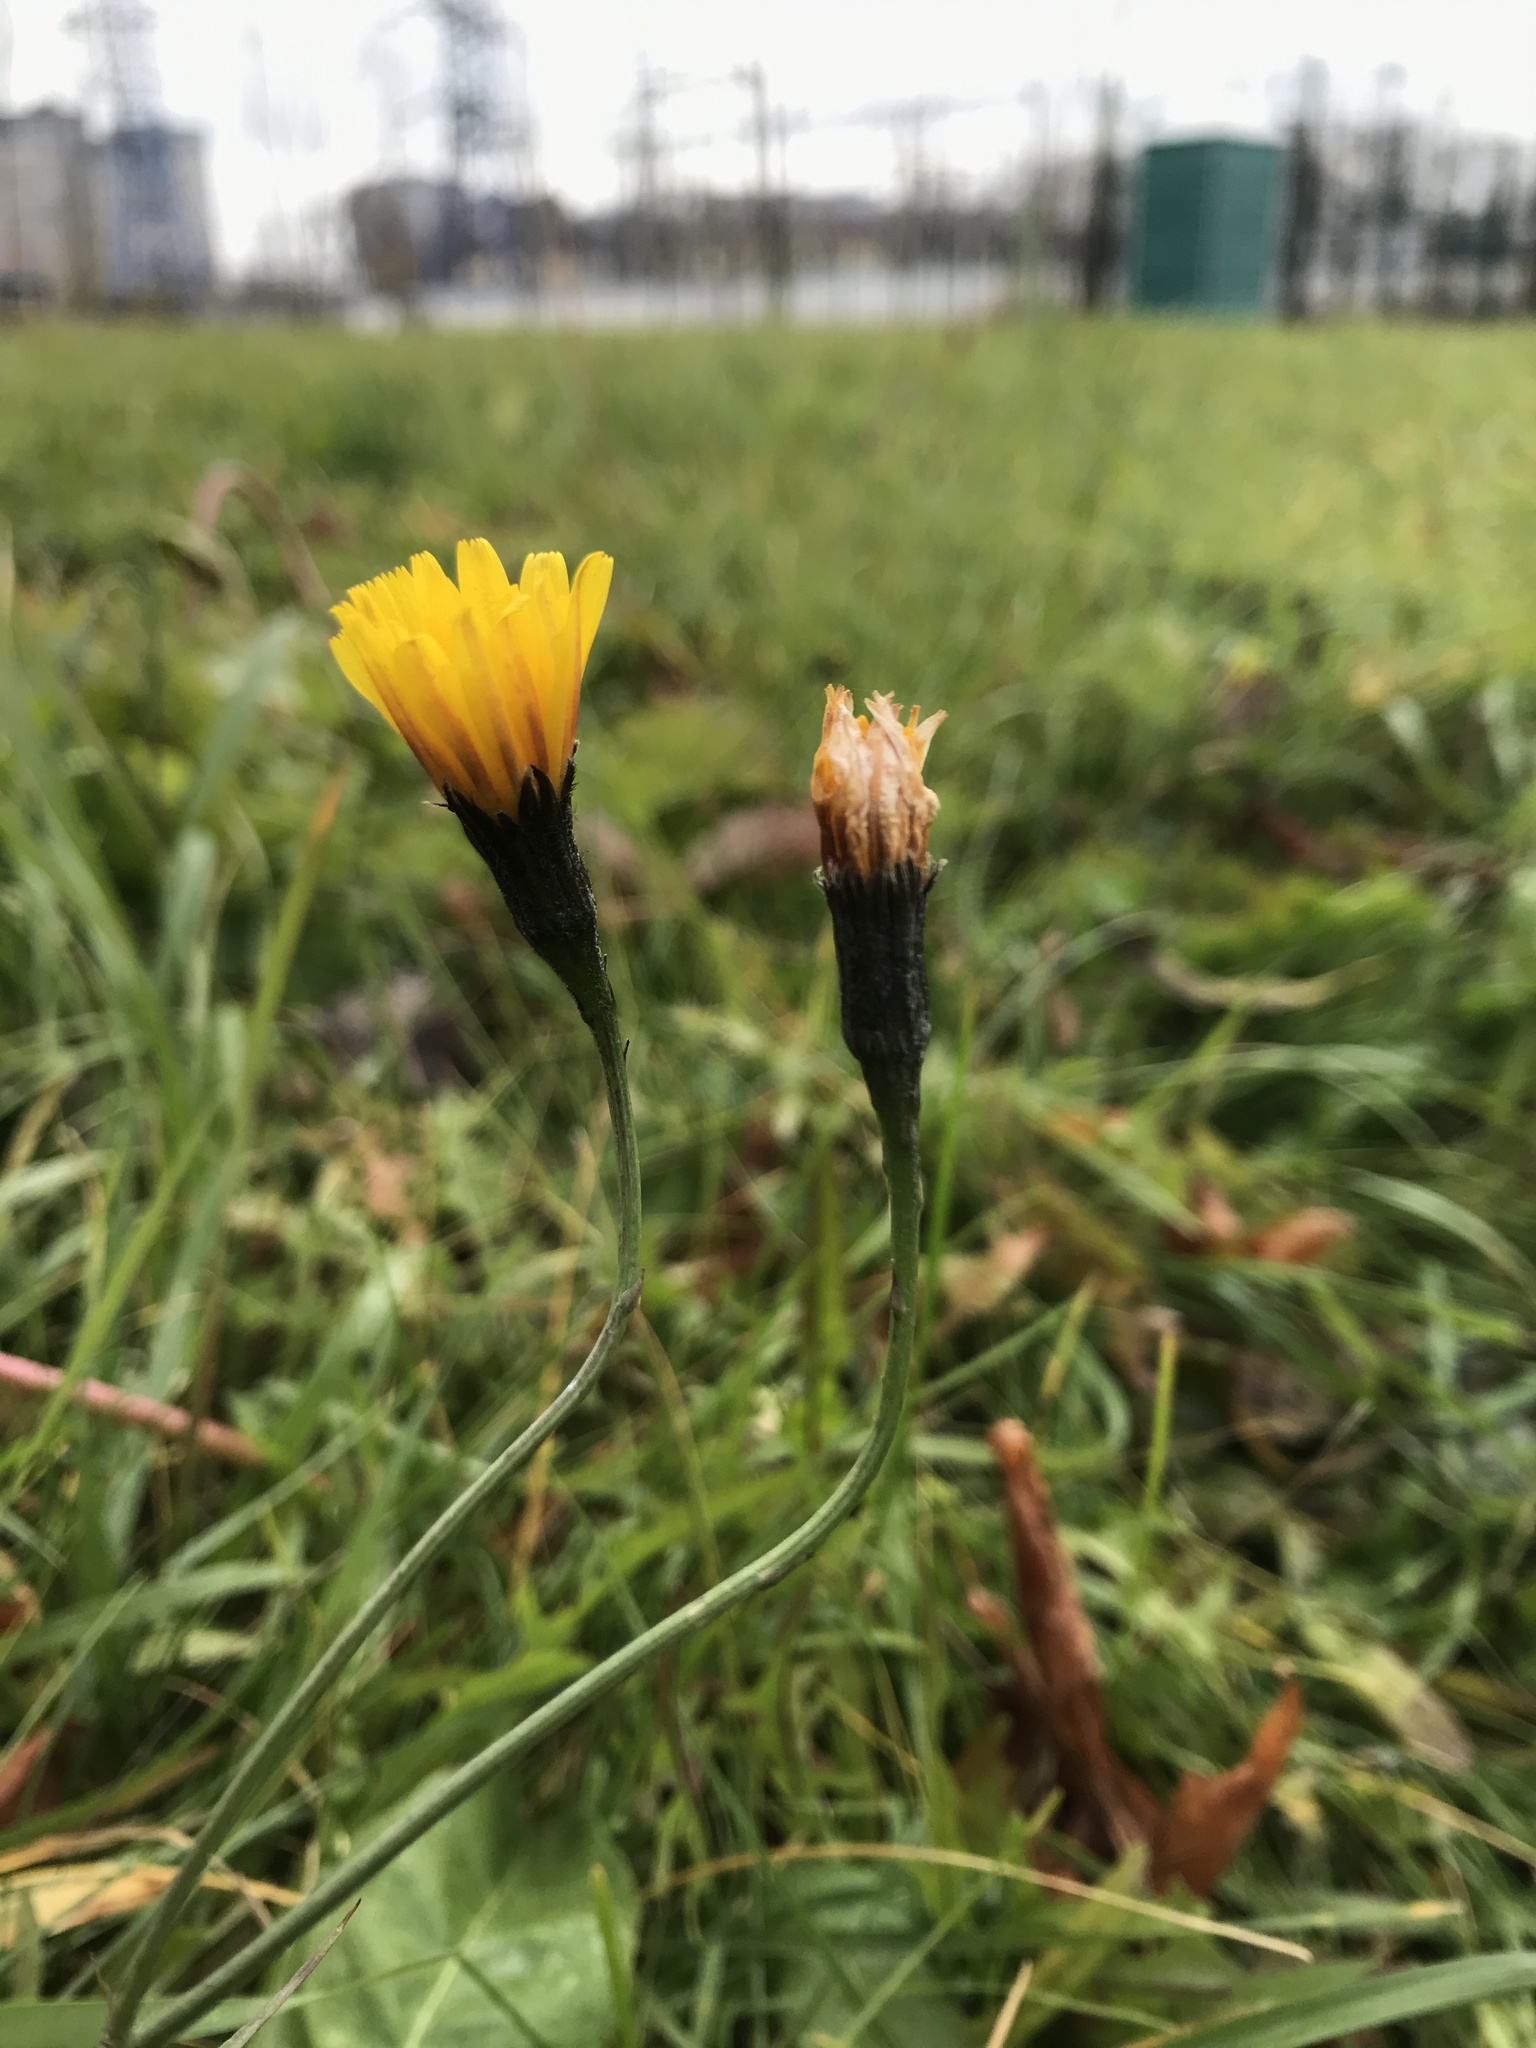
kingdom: Plantae
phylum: Tracheophyta
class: Magnoliopsida
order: Asterales
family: Asteraceae
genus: Scorzoneroides
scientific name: Scorzoneroides autumnalis
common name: Autumn hawkbit
